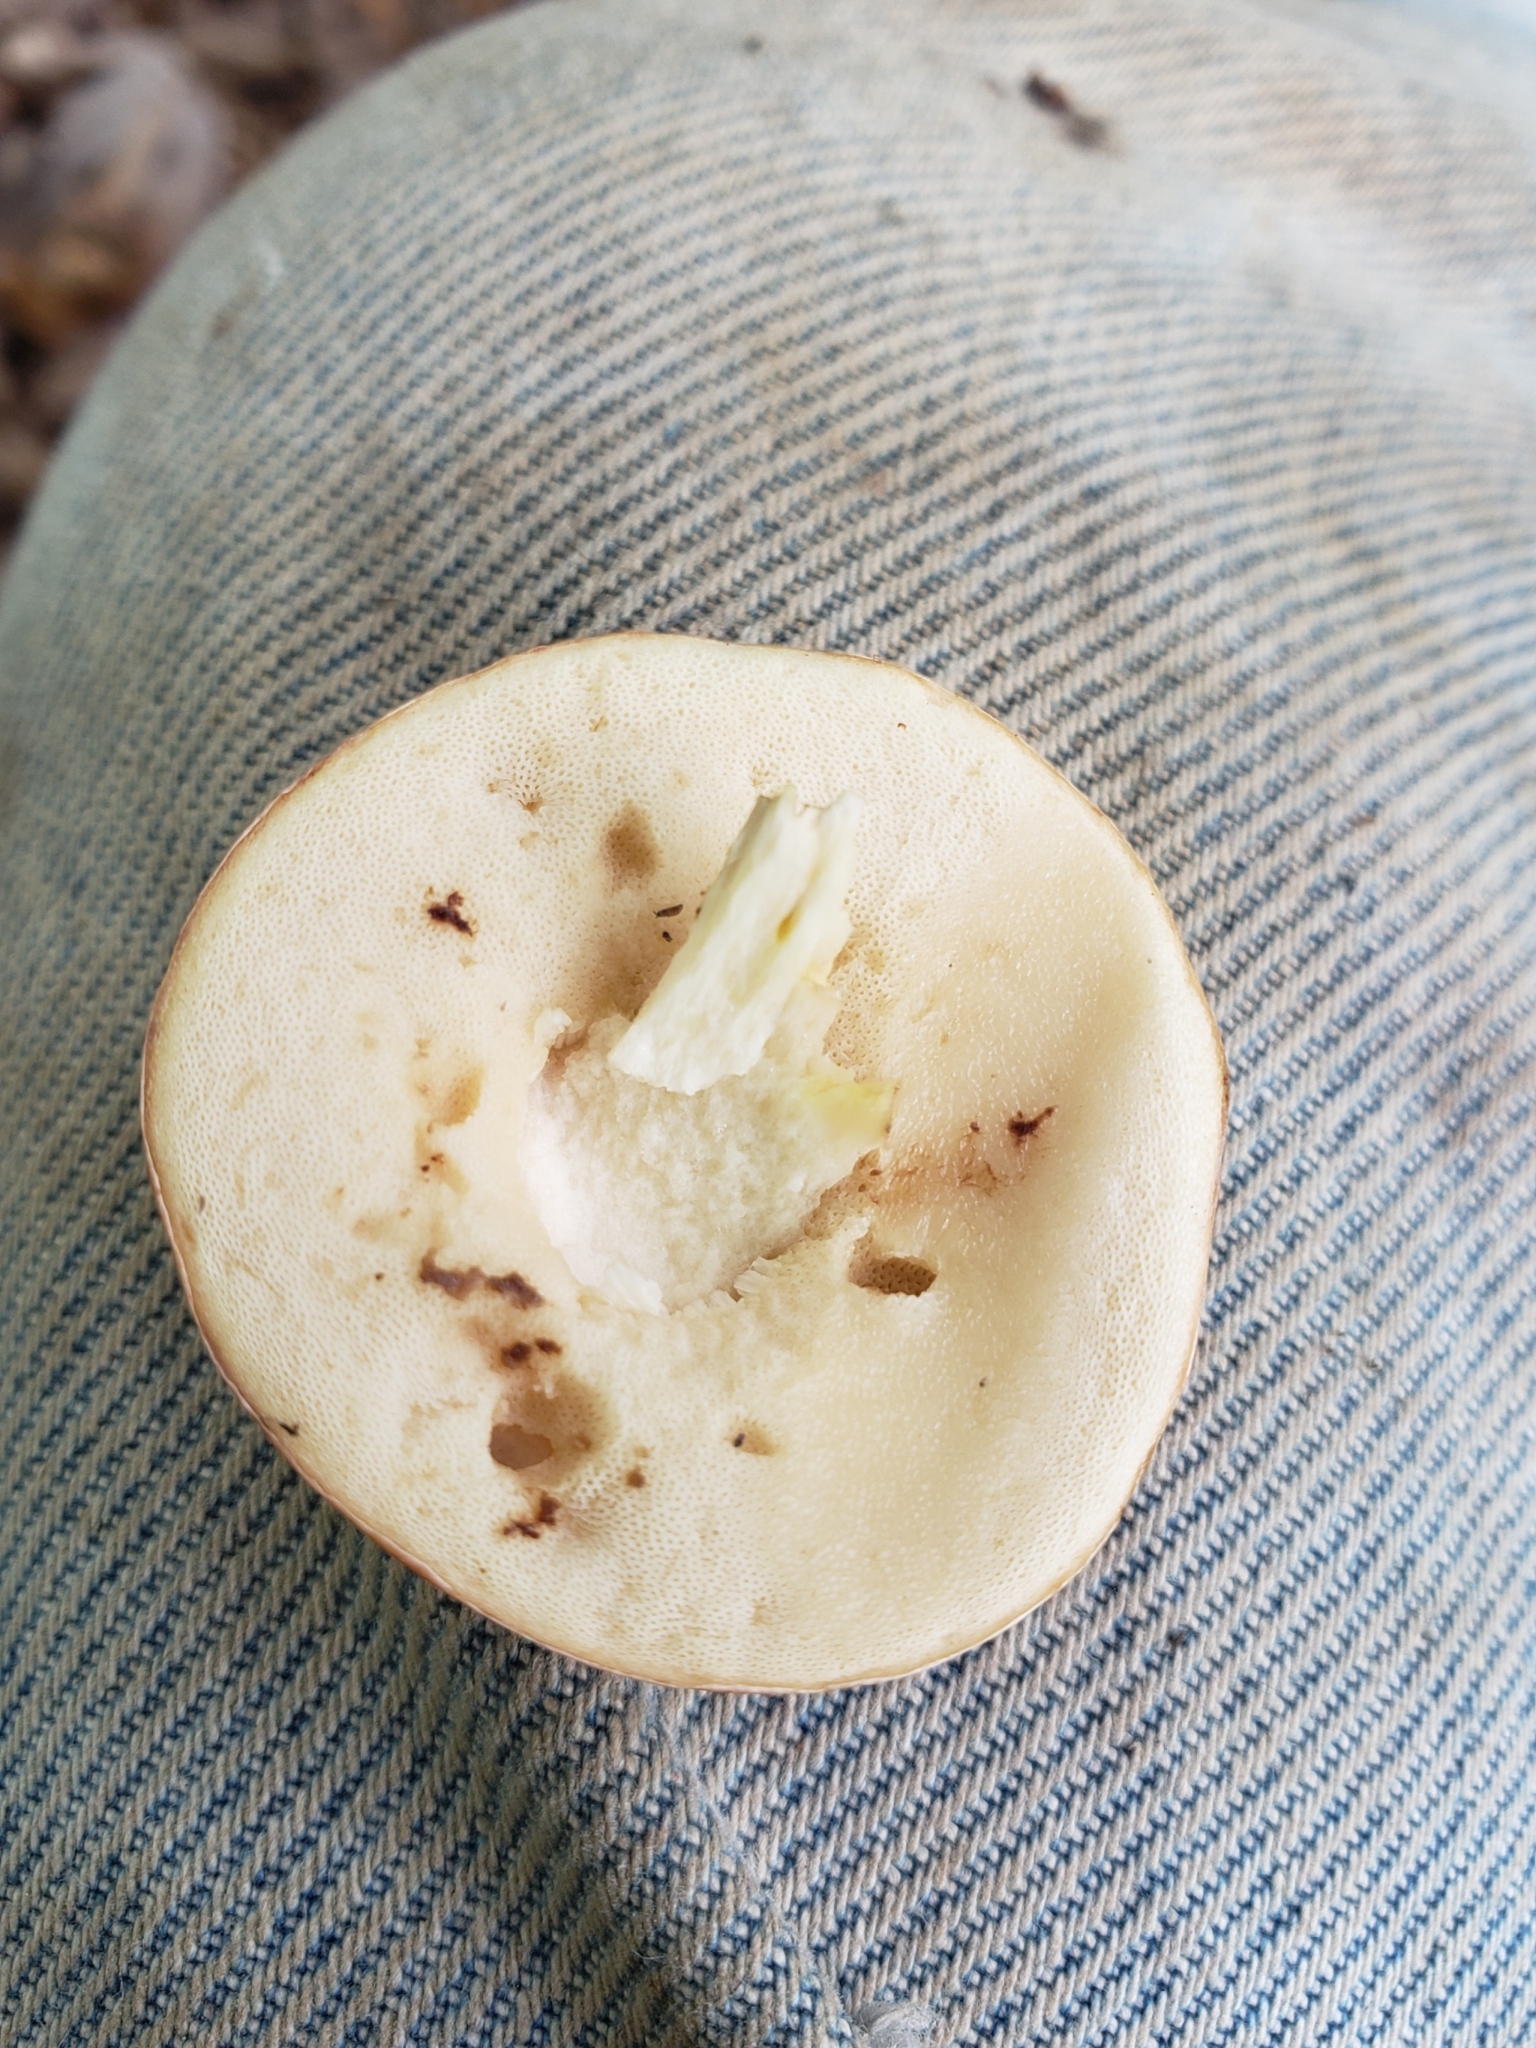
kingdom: Fungi
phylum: Basidiomycota
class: Agaricomycetes
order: Boletales
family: Boletaceae
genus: Harrya
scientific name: Harrya chromipes
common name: Chrome-footed bolete
